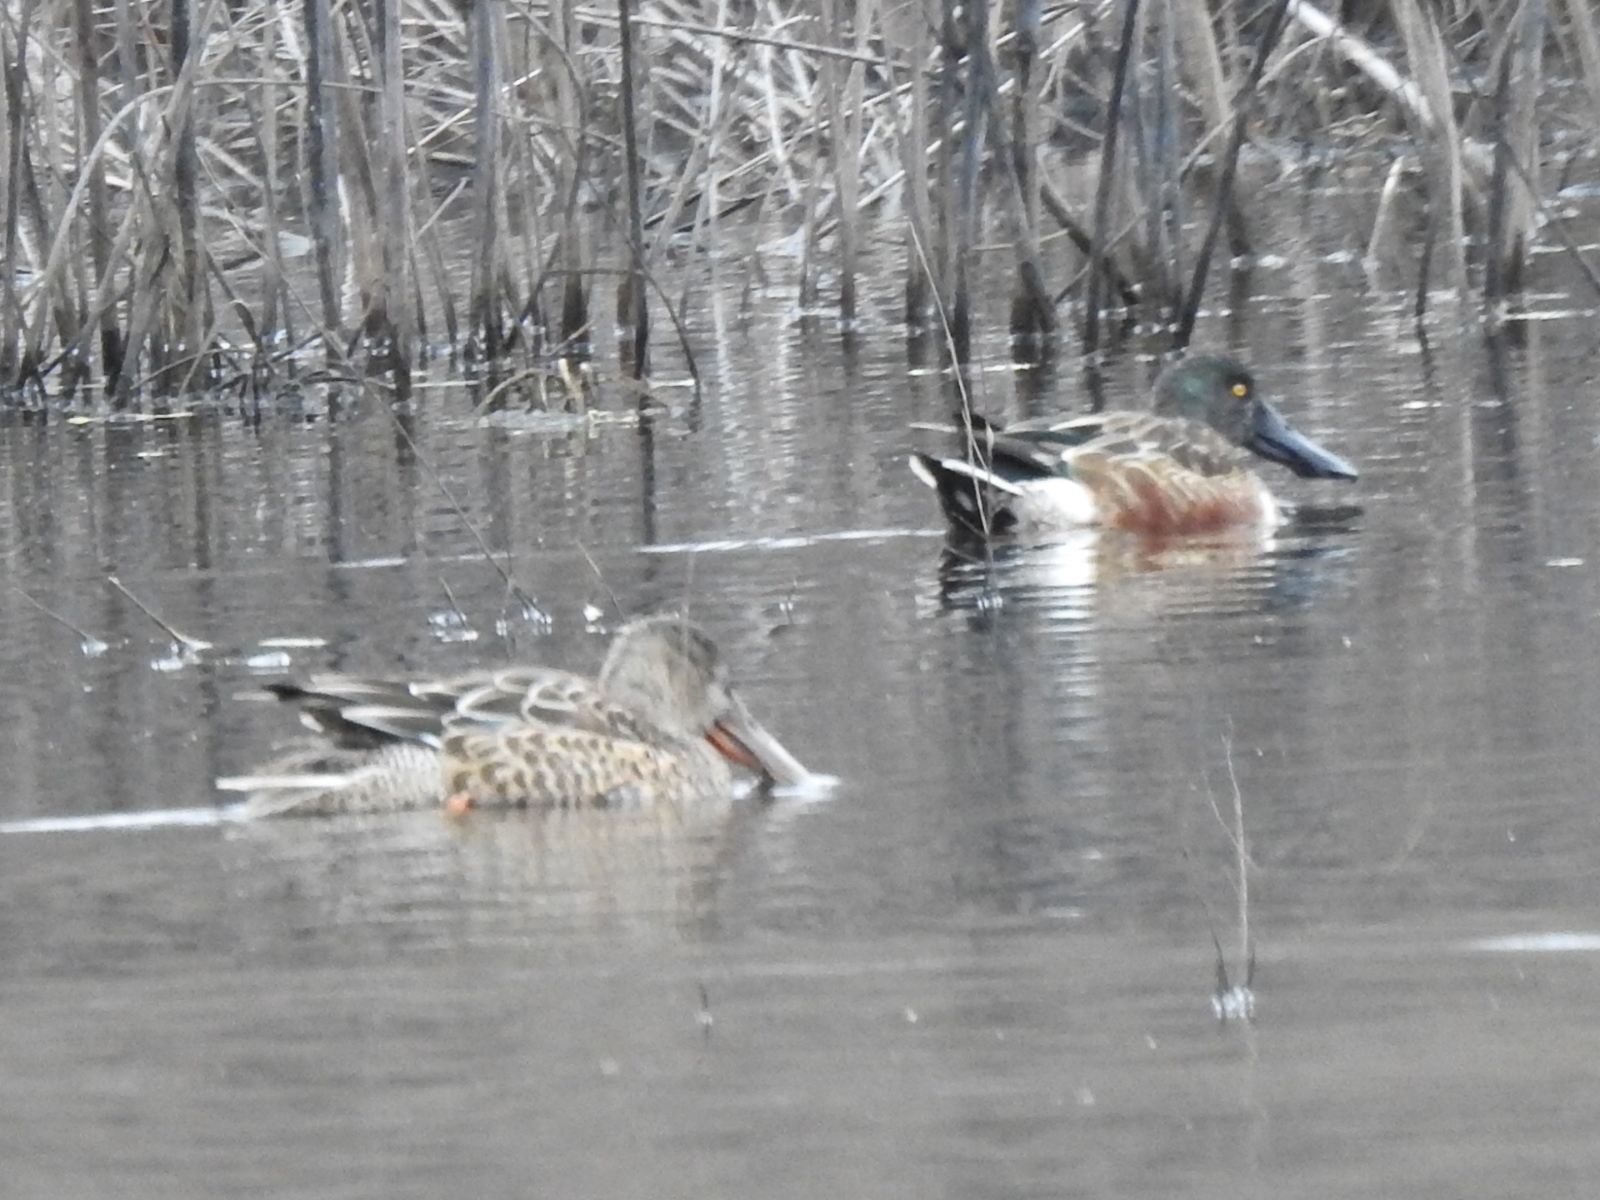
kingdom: Animalia
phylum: Chordata
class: Aves
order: Anseriformes
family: Anatidae
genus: Spatula
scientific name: Spatula clypeata
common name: Northern shoveler
